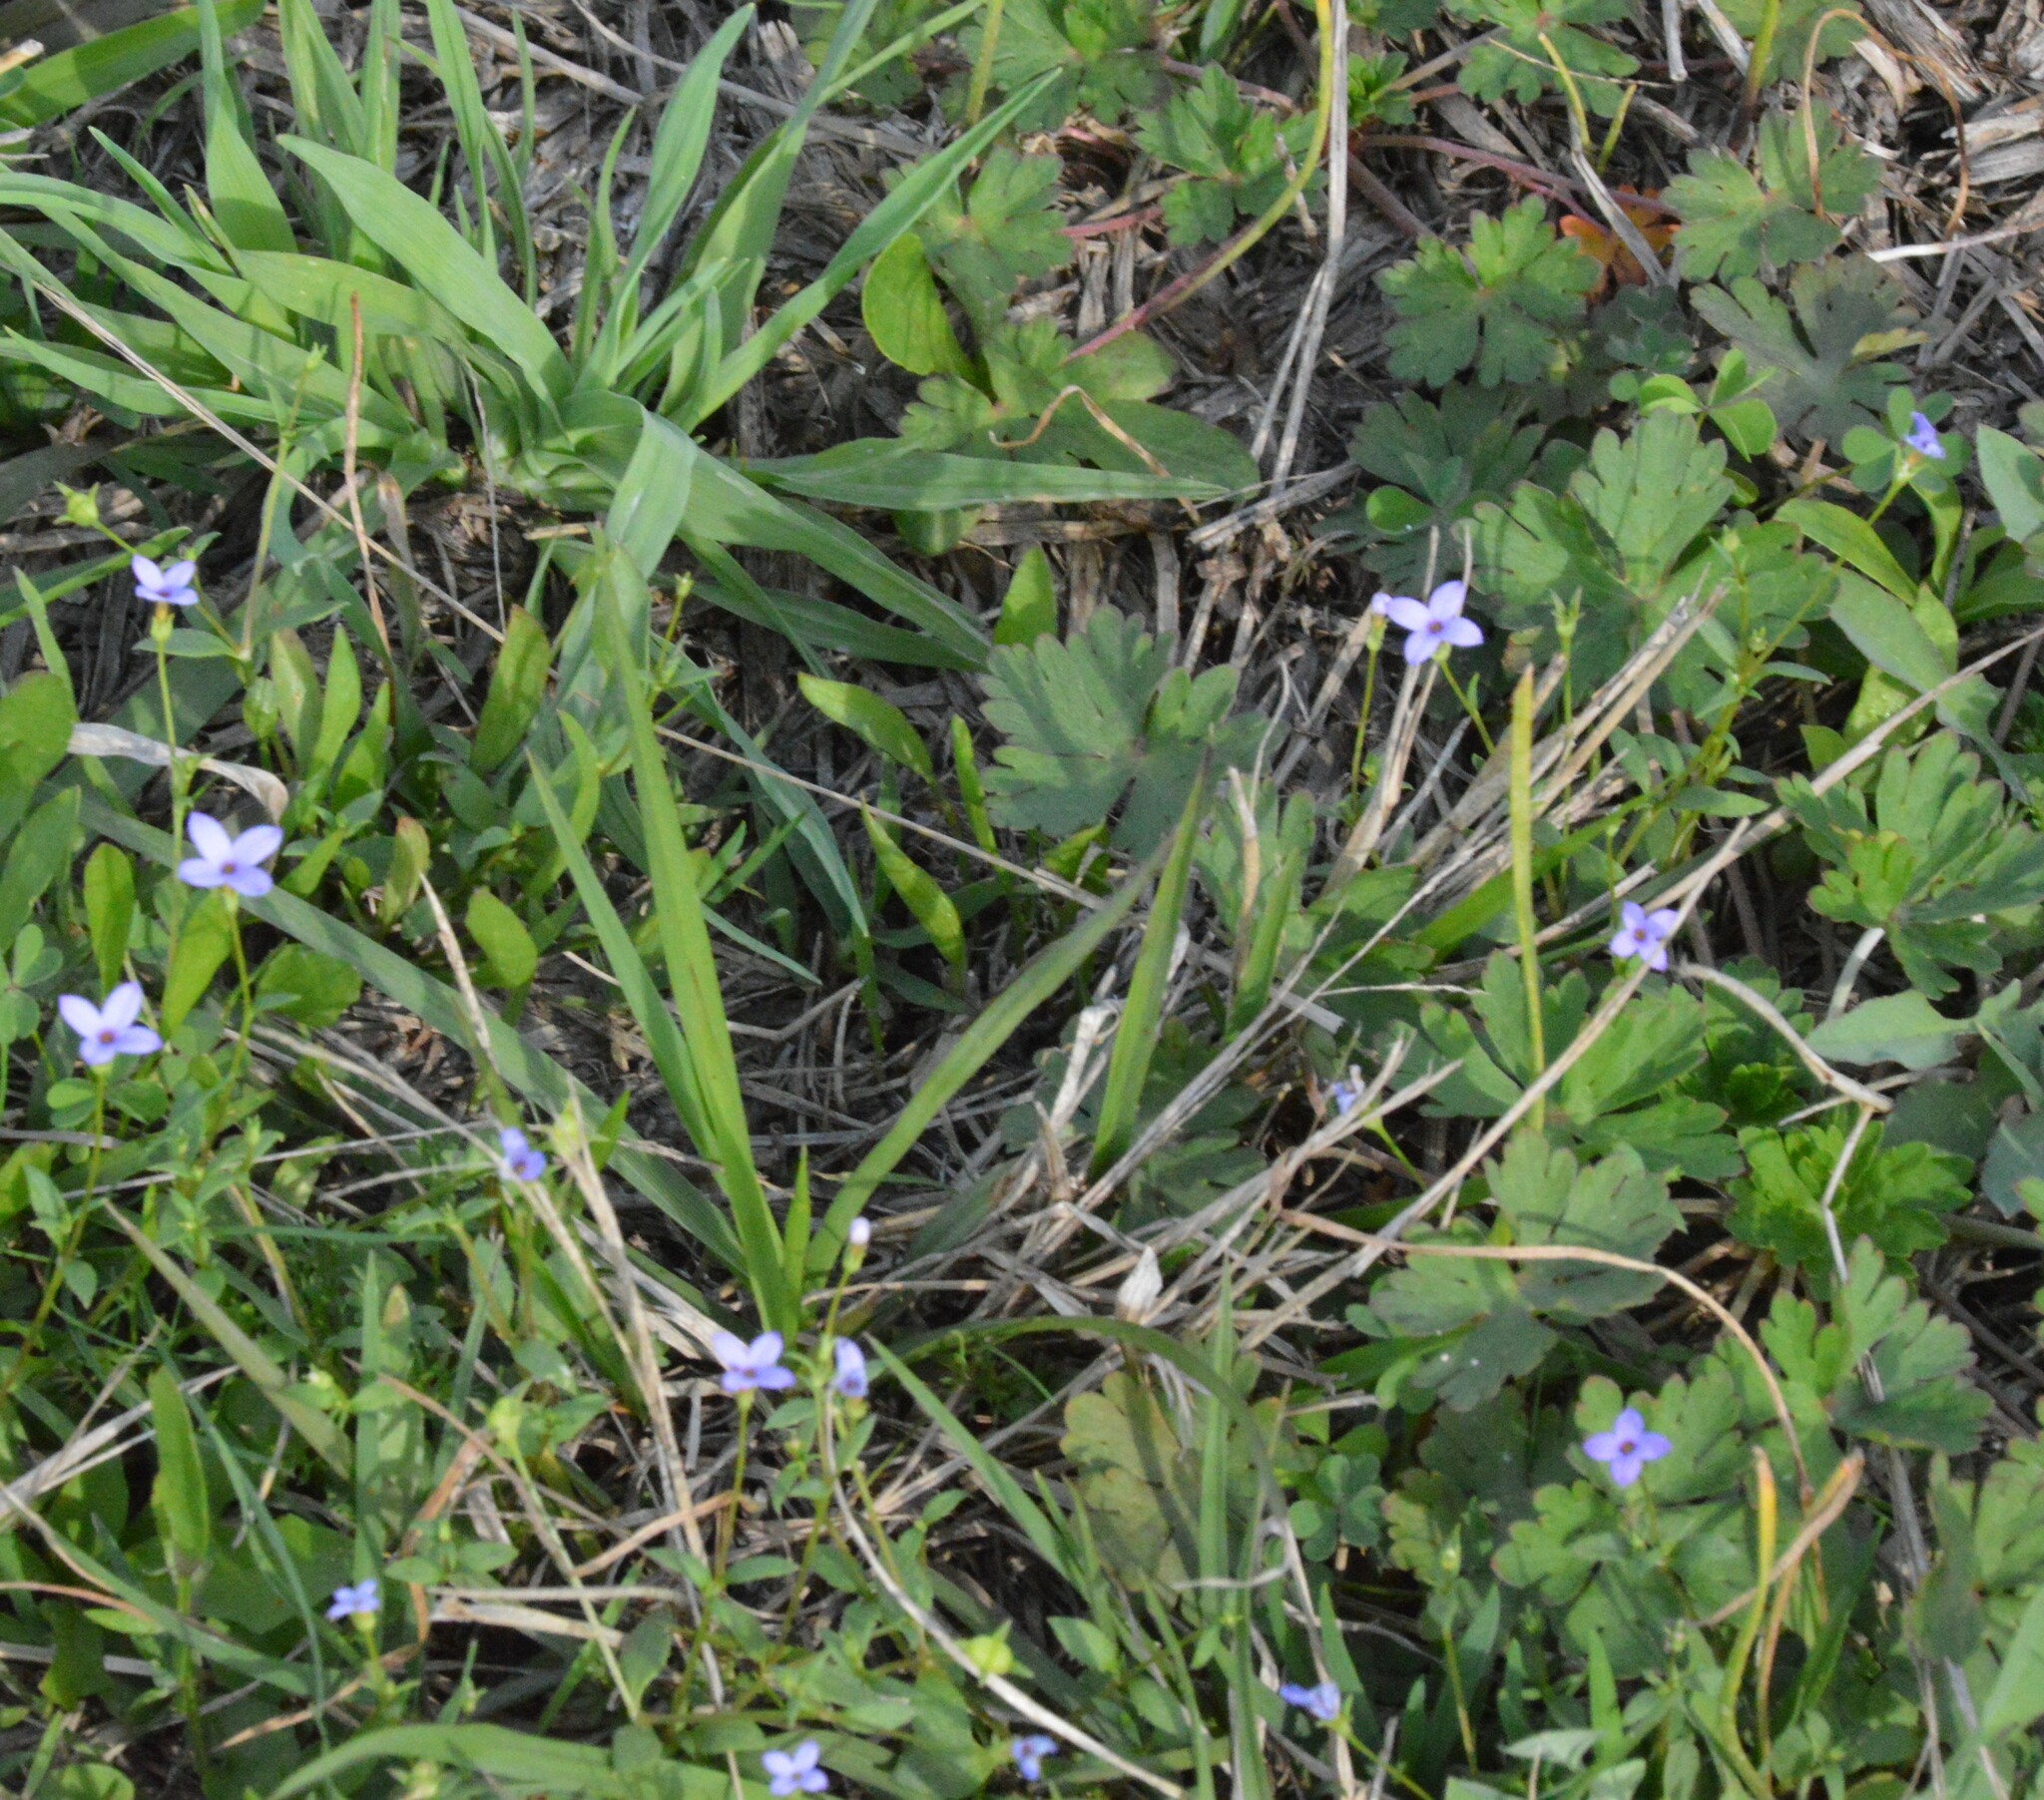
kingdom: Plantae
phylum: Tracheophyta
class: Magnoliopsida
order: Gentianales
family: Rubiaceae
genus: Houstonia
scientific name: Houstonia pusilla
